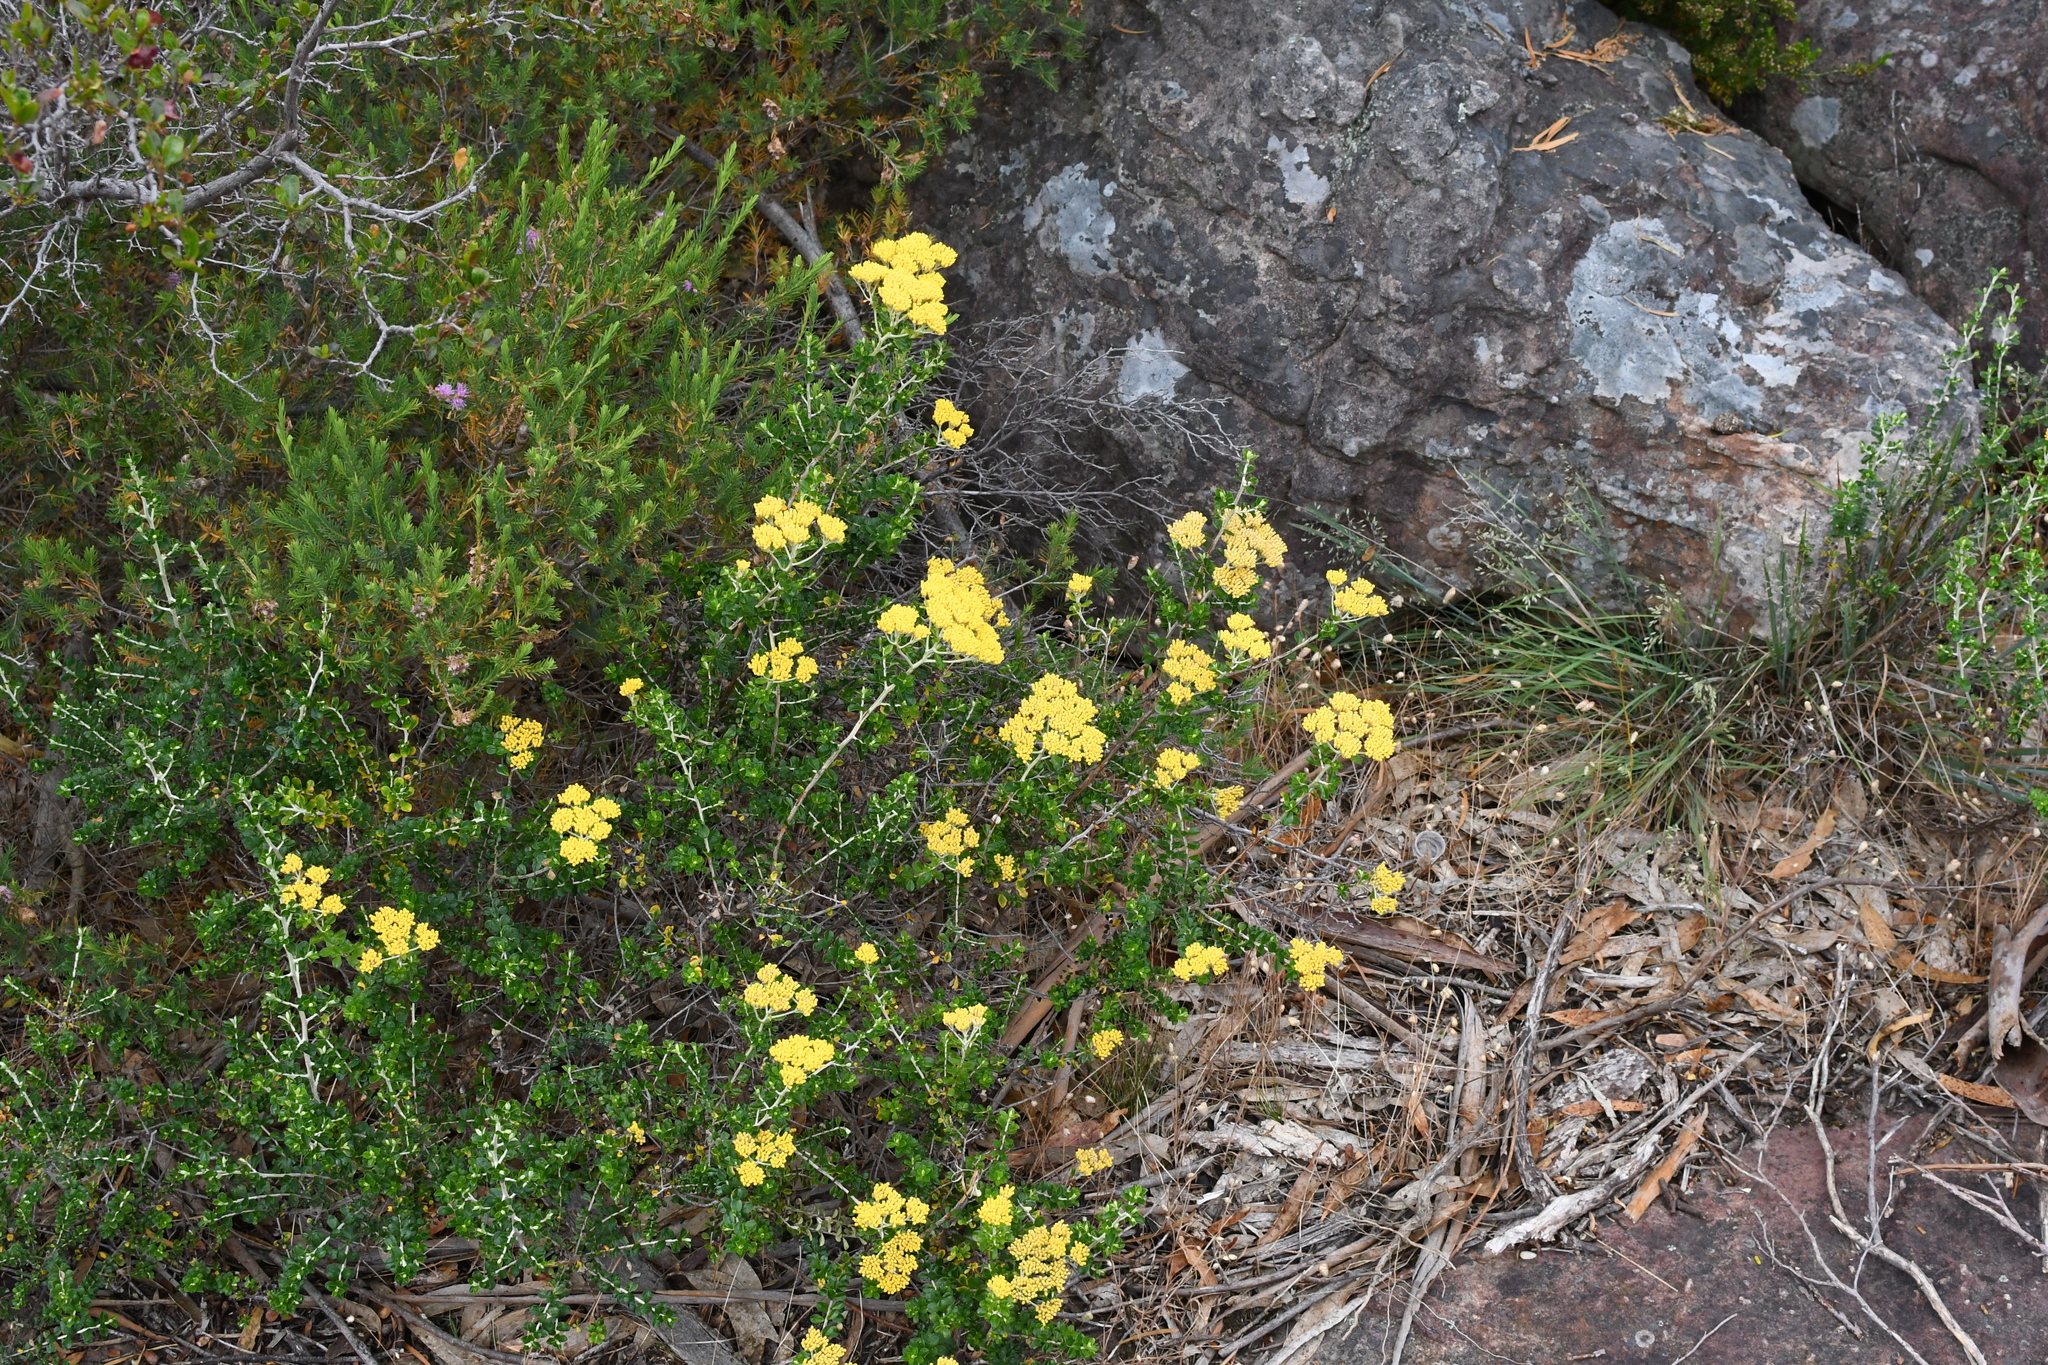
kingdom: Plantae
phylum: Tracheophyta
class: Magnoliopsida
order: Asterales
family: Asteraceae
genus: Ozothamnus
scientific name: Ozothamnus obcordatus
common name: Grey everlasting
